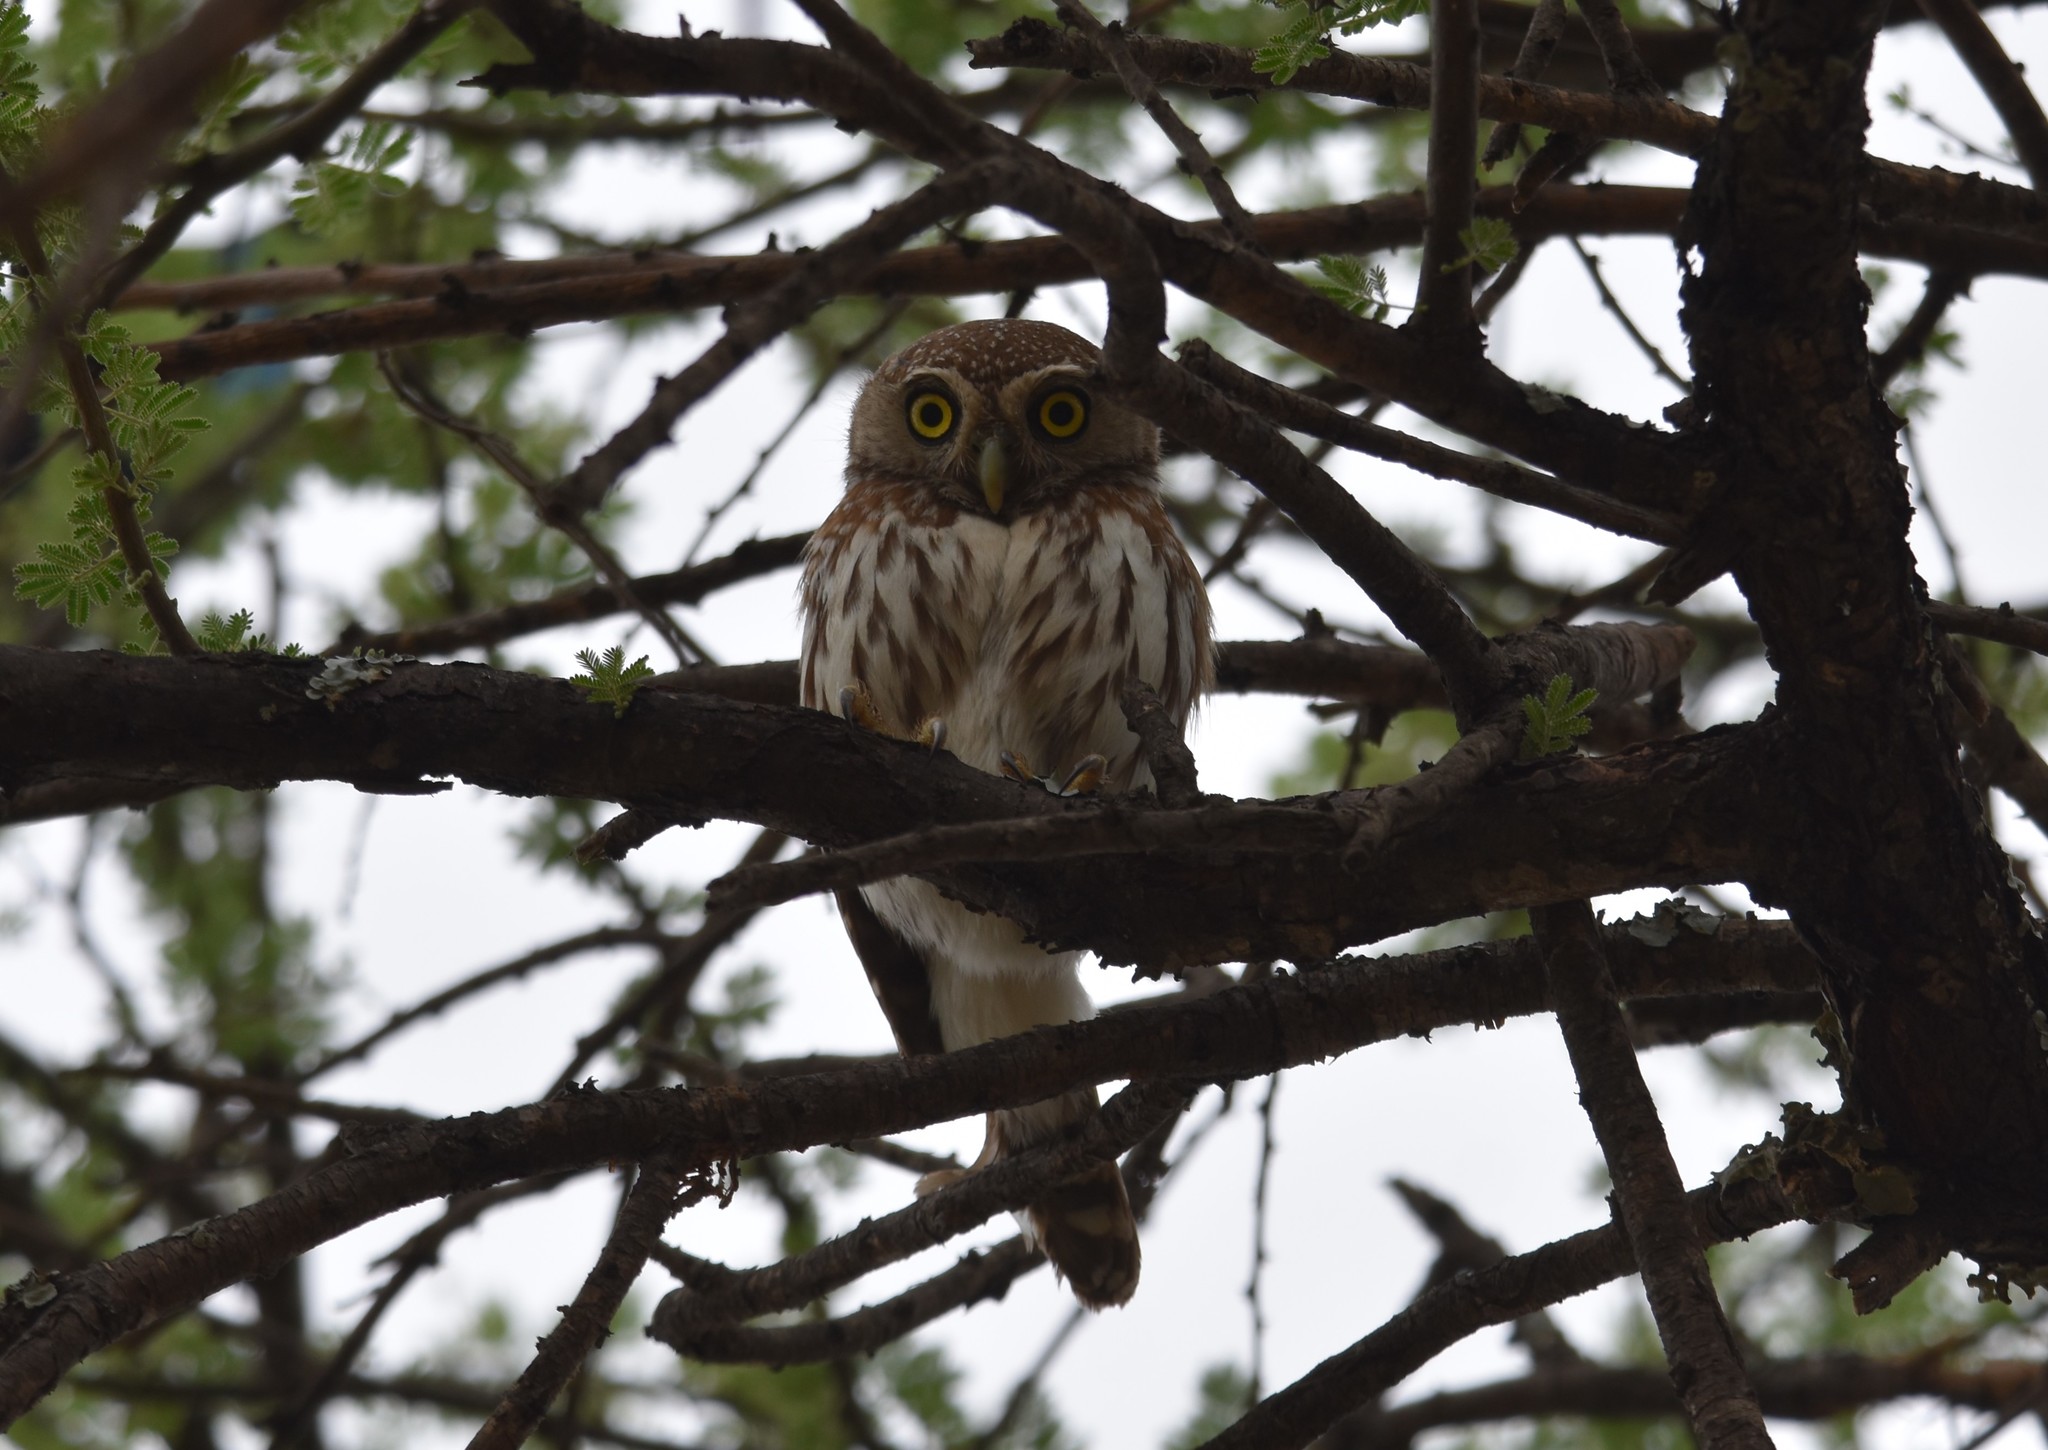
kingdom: Animalia
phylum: Chordata
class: Aves
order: Strigiformes
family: Strigidae
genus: Glaucidium
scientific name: Glaucidium perlatum
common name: Pearl-spotted owlet
